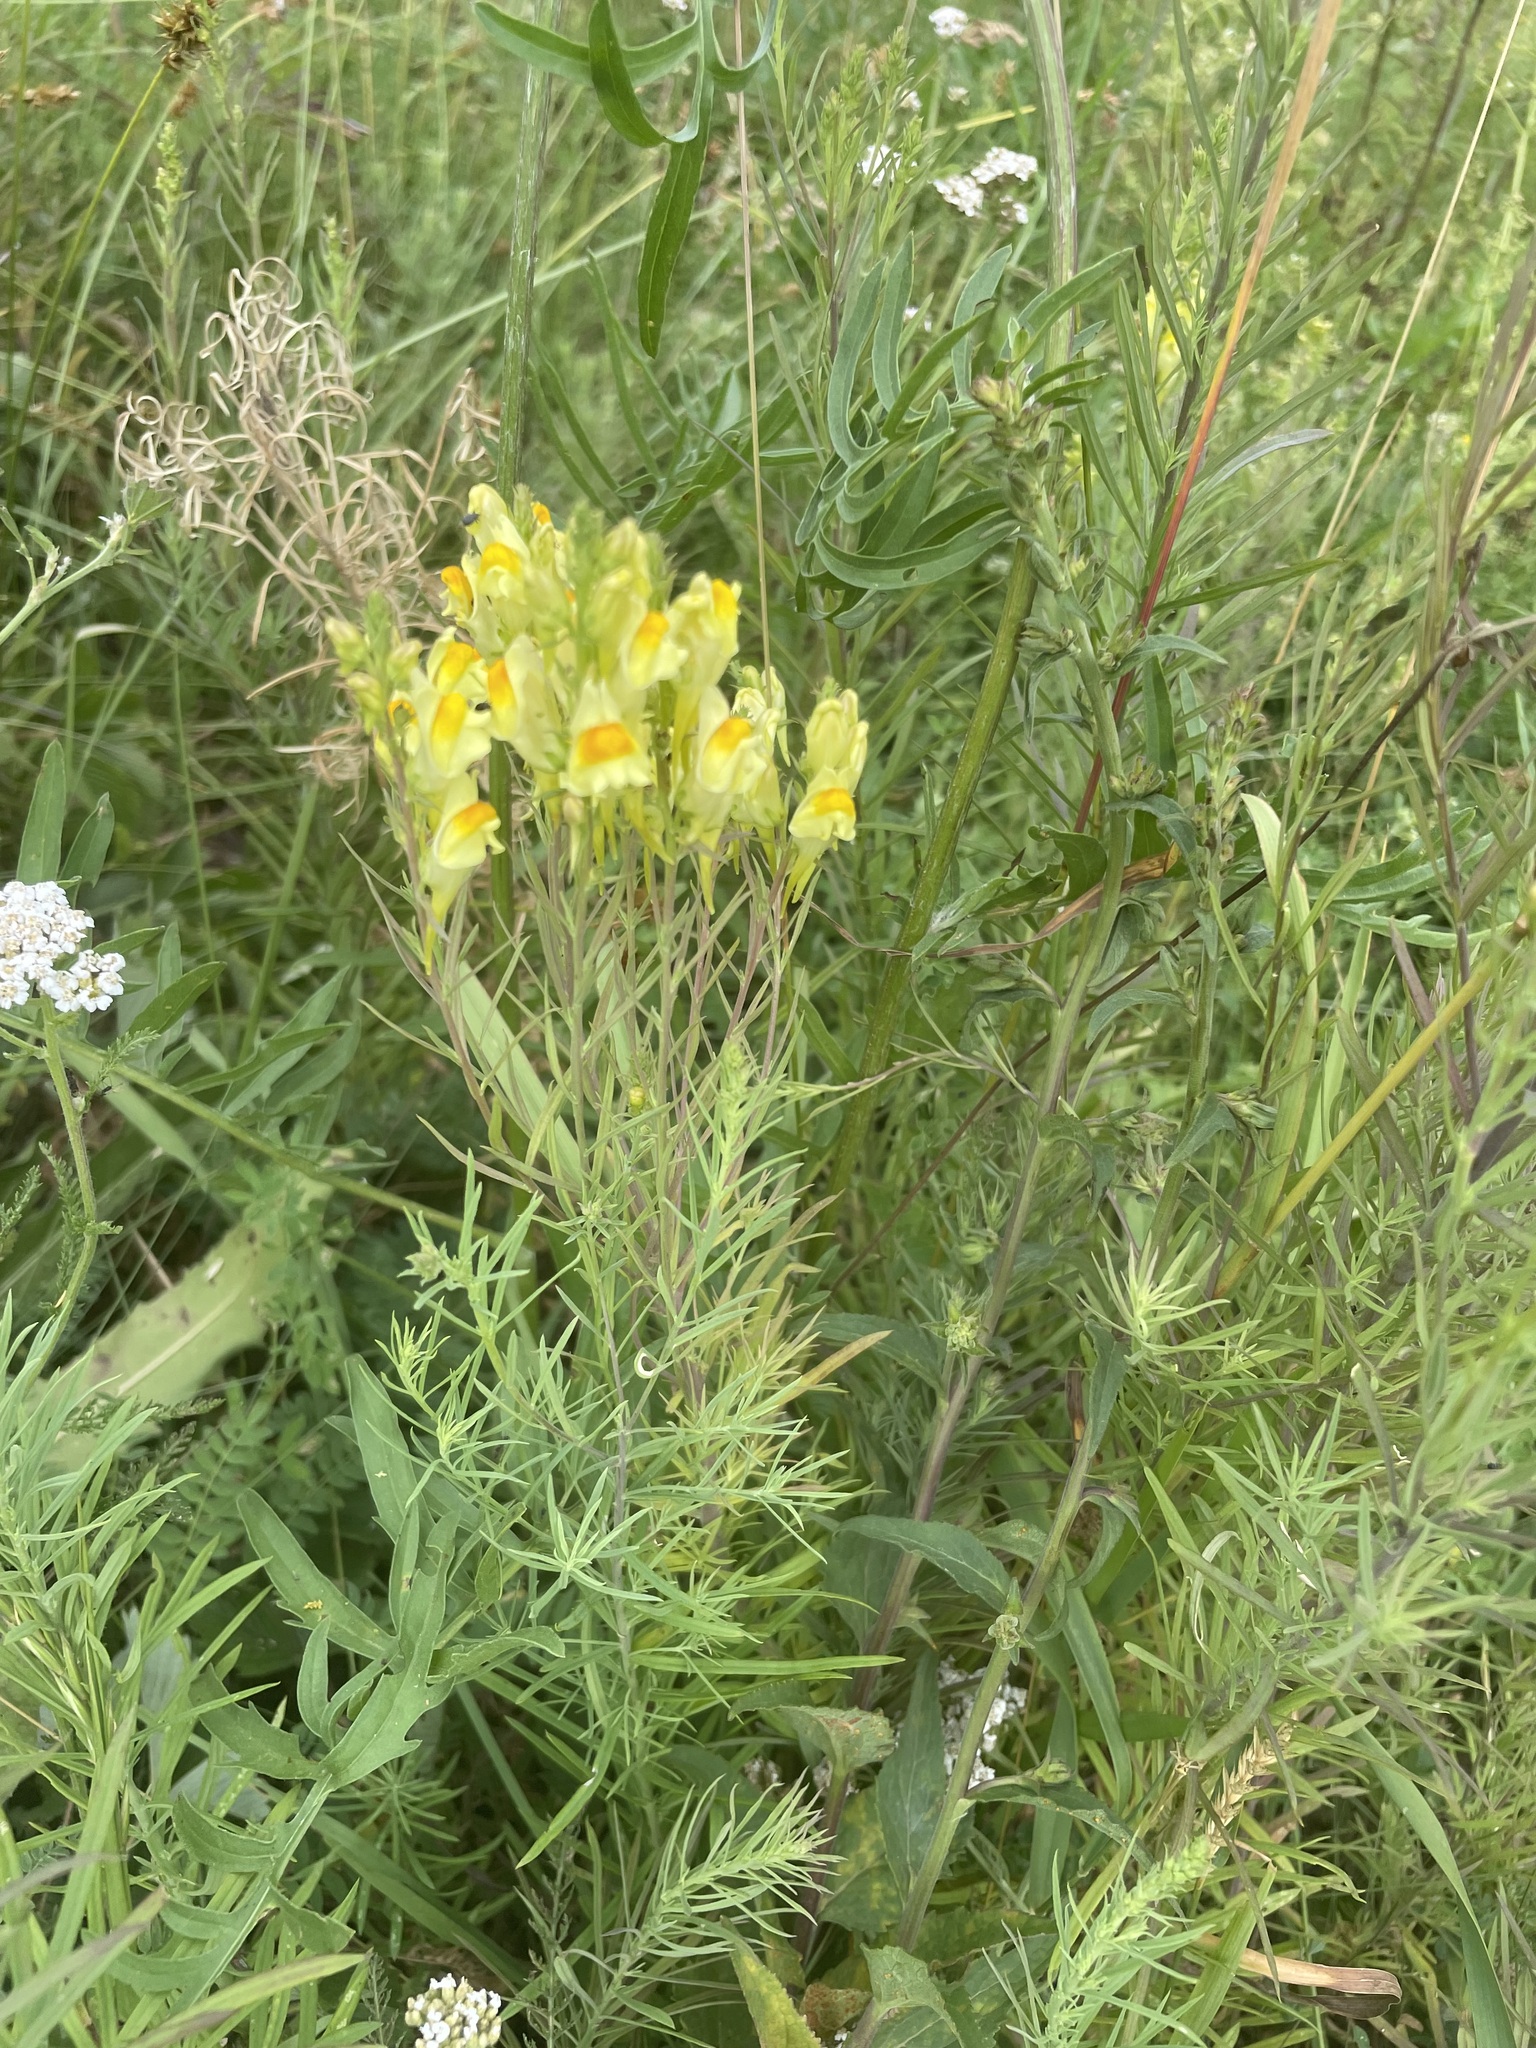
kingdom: Plantae
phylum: Tracheophyta
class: Magnoliopsida
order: Lamiales
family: Plantaginaceae
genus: Linaria
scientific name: Linaria vulgaris
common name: Butter and eggs
